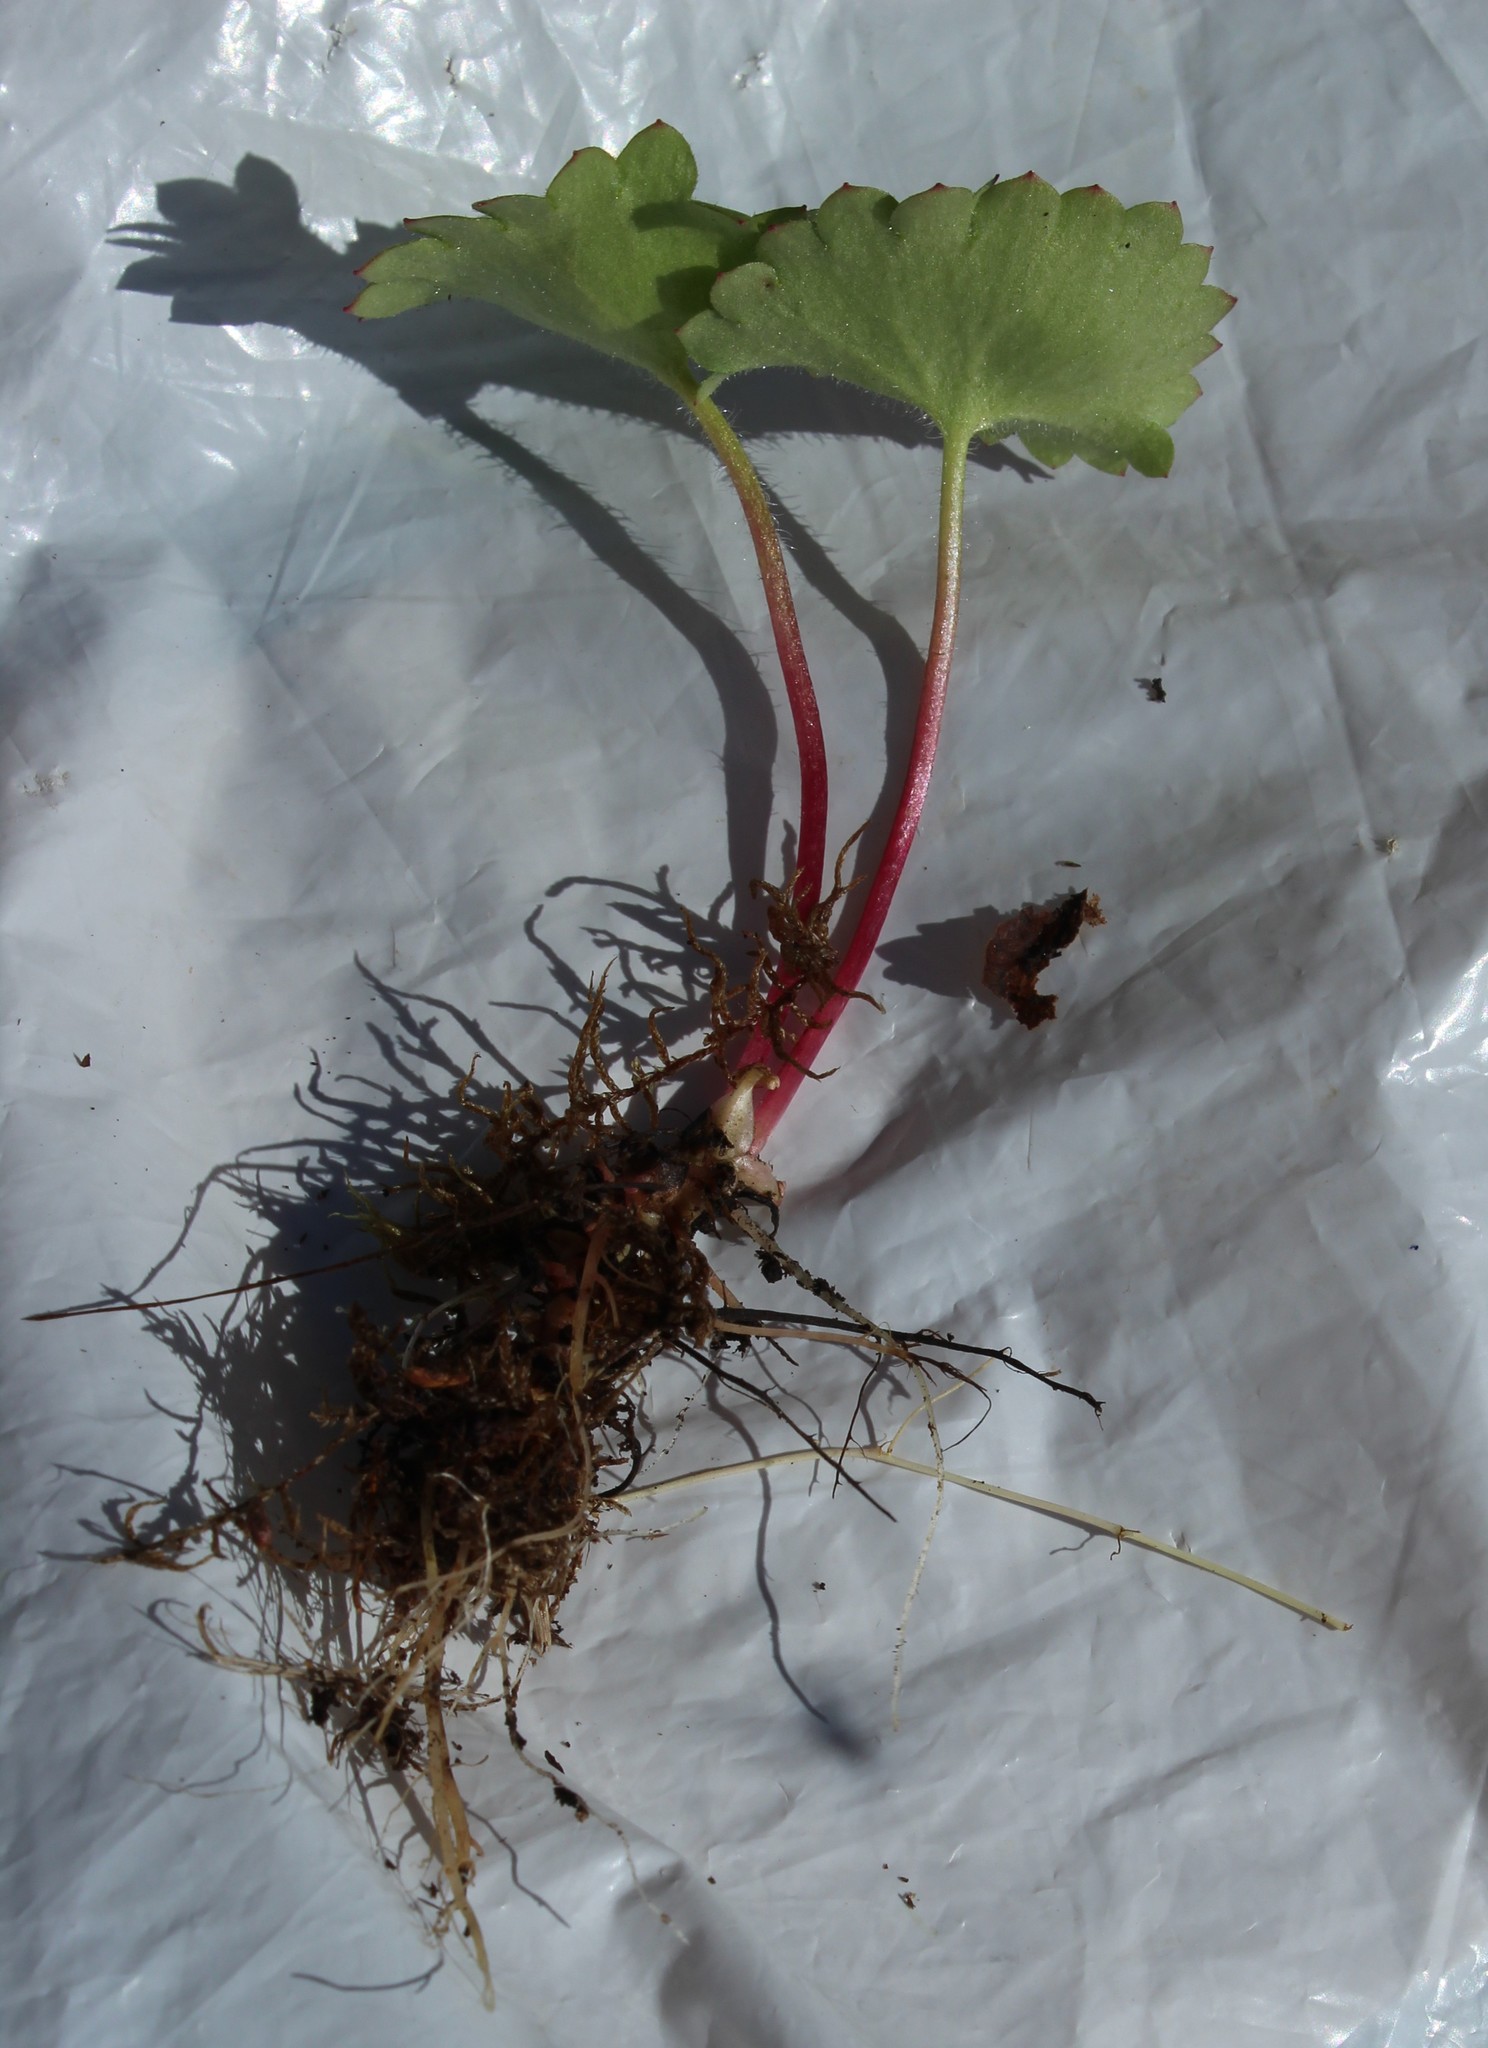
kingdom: Plantae
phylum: Tracheophyta
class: Magnoliopsida
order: Saxifragales
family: Saxifragaceae
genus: Micranthes
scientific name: Micranthes nelsoniana
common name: Nelson's saxifrage
